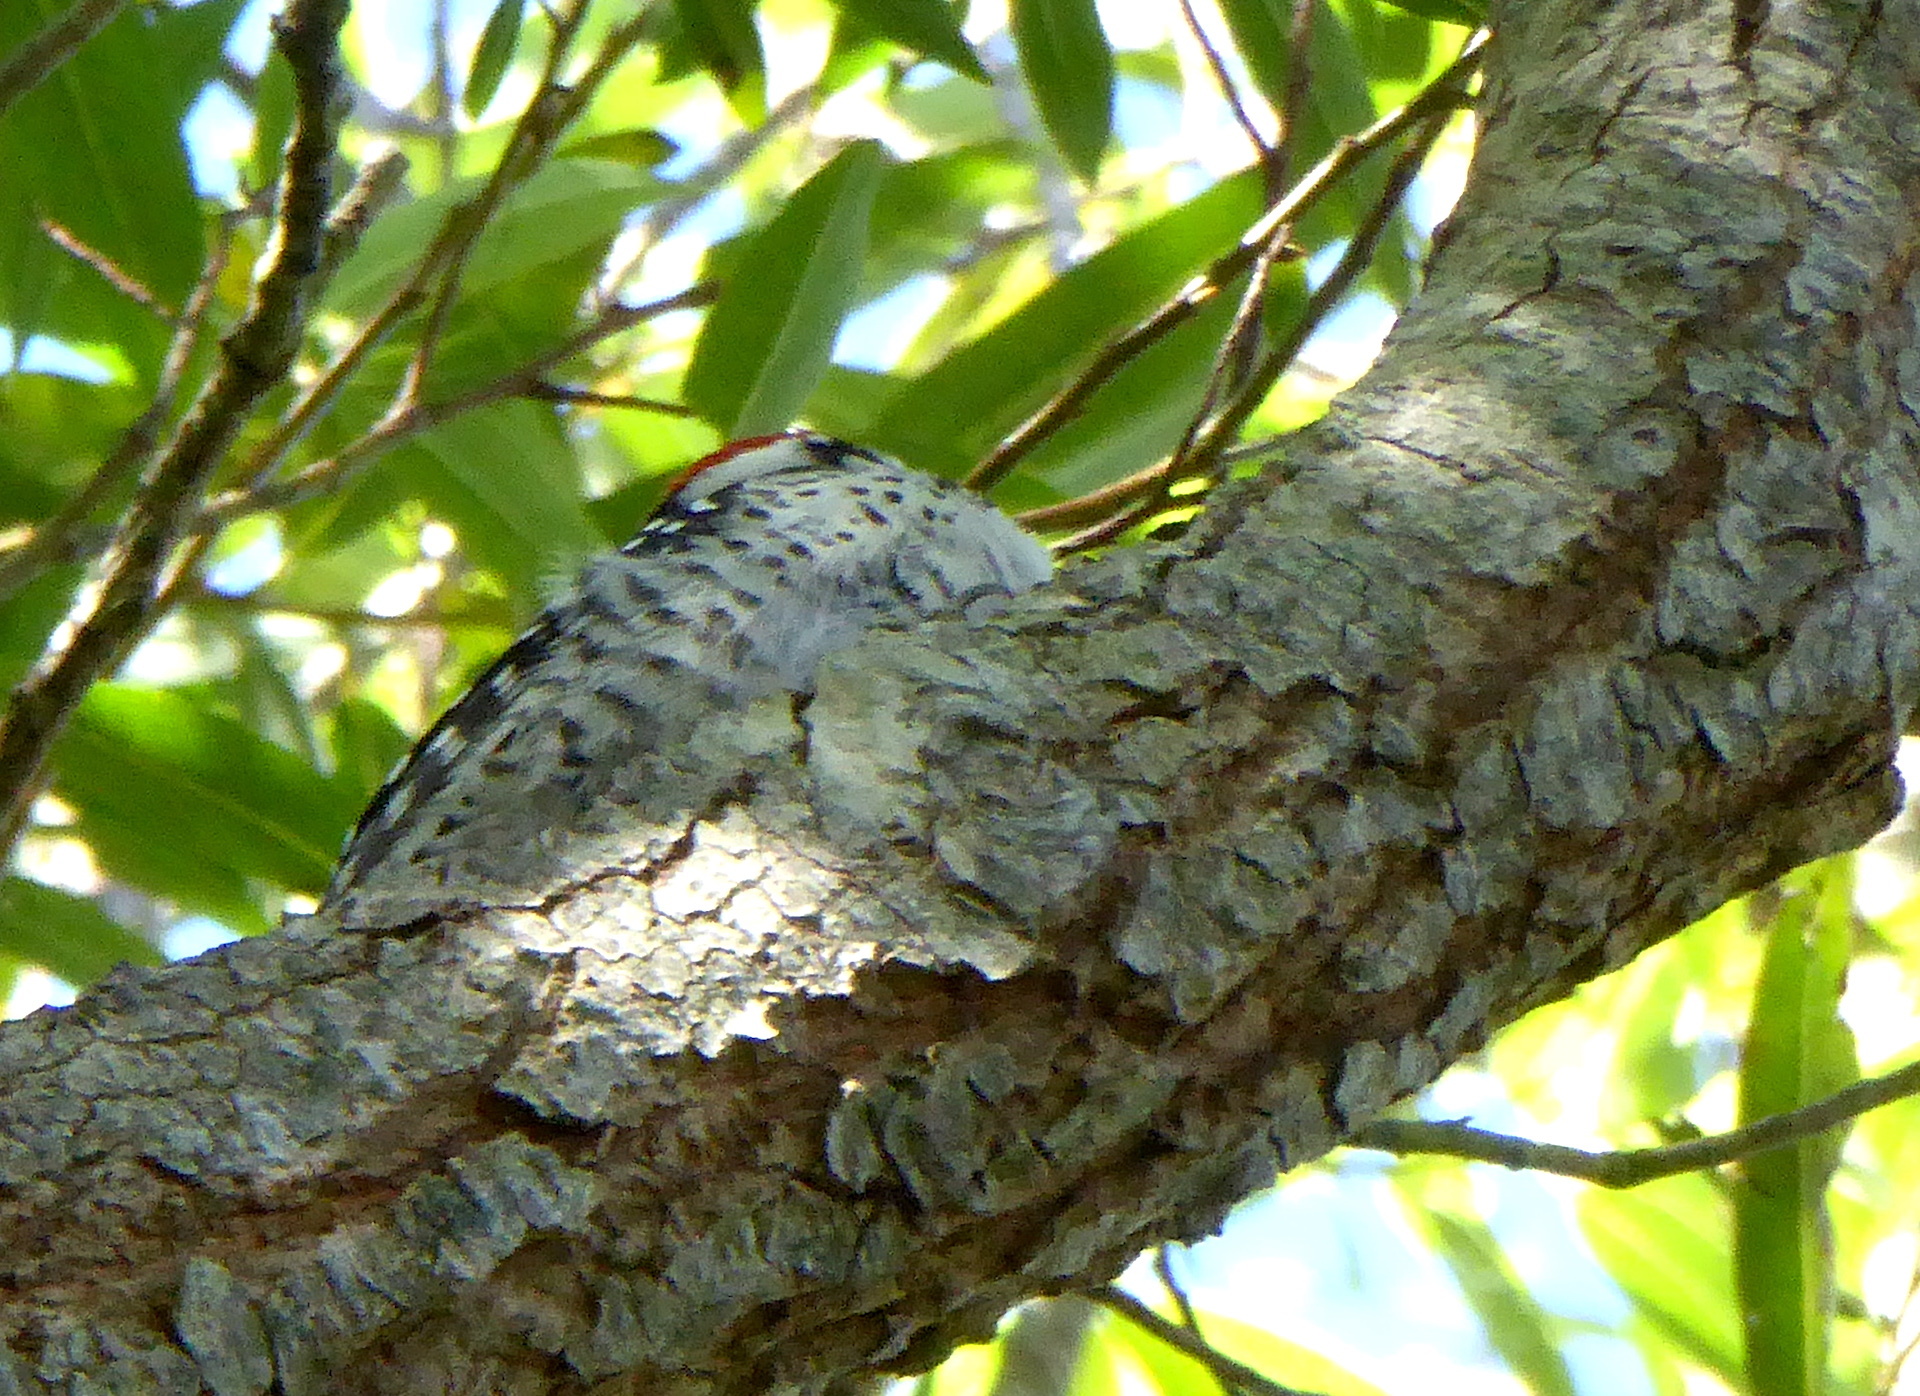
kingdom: Animalia
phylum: Chordata
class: Aves
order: Piciformes
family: Picidae
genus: Dryobates
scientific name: Dryobates nuttallii
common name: Nuttall's woodpecker
